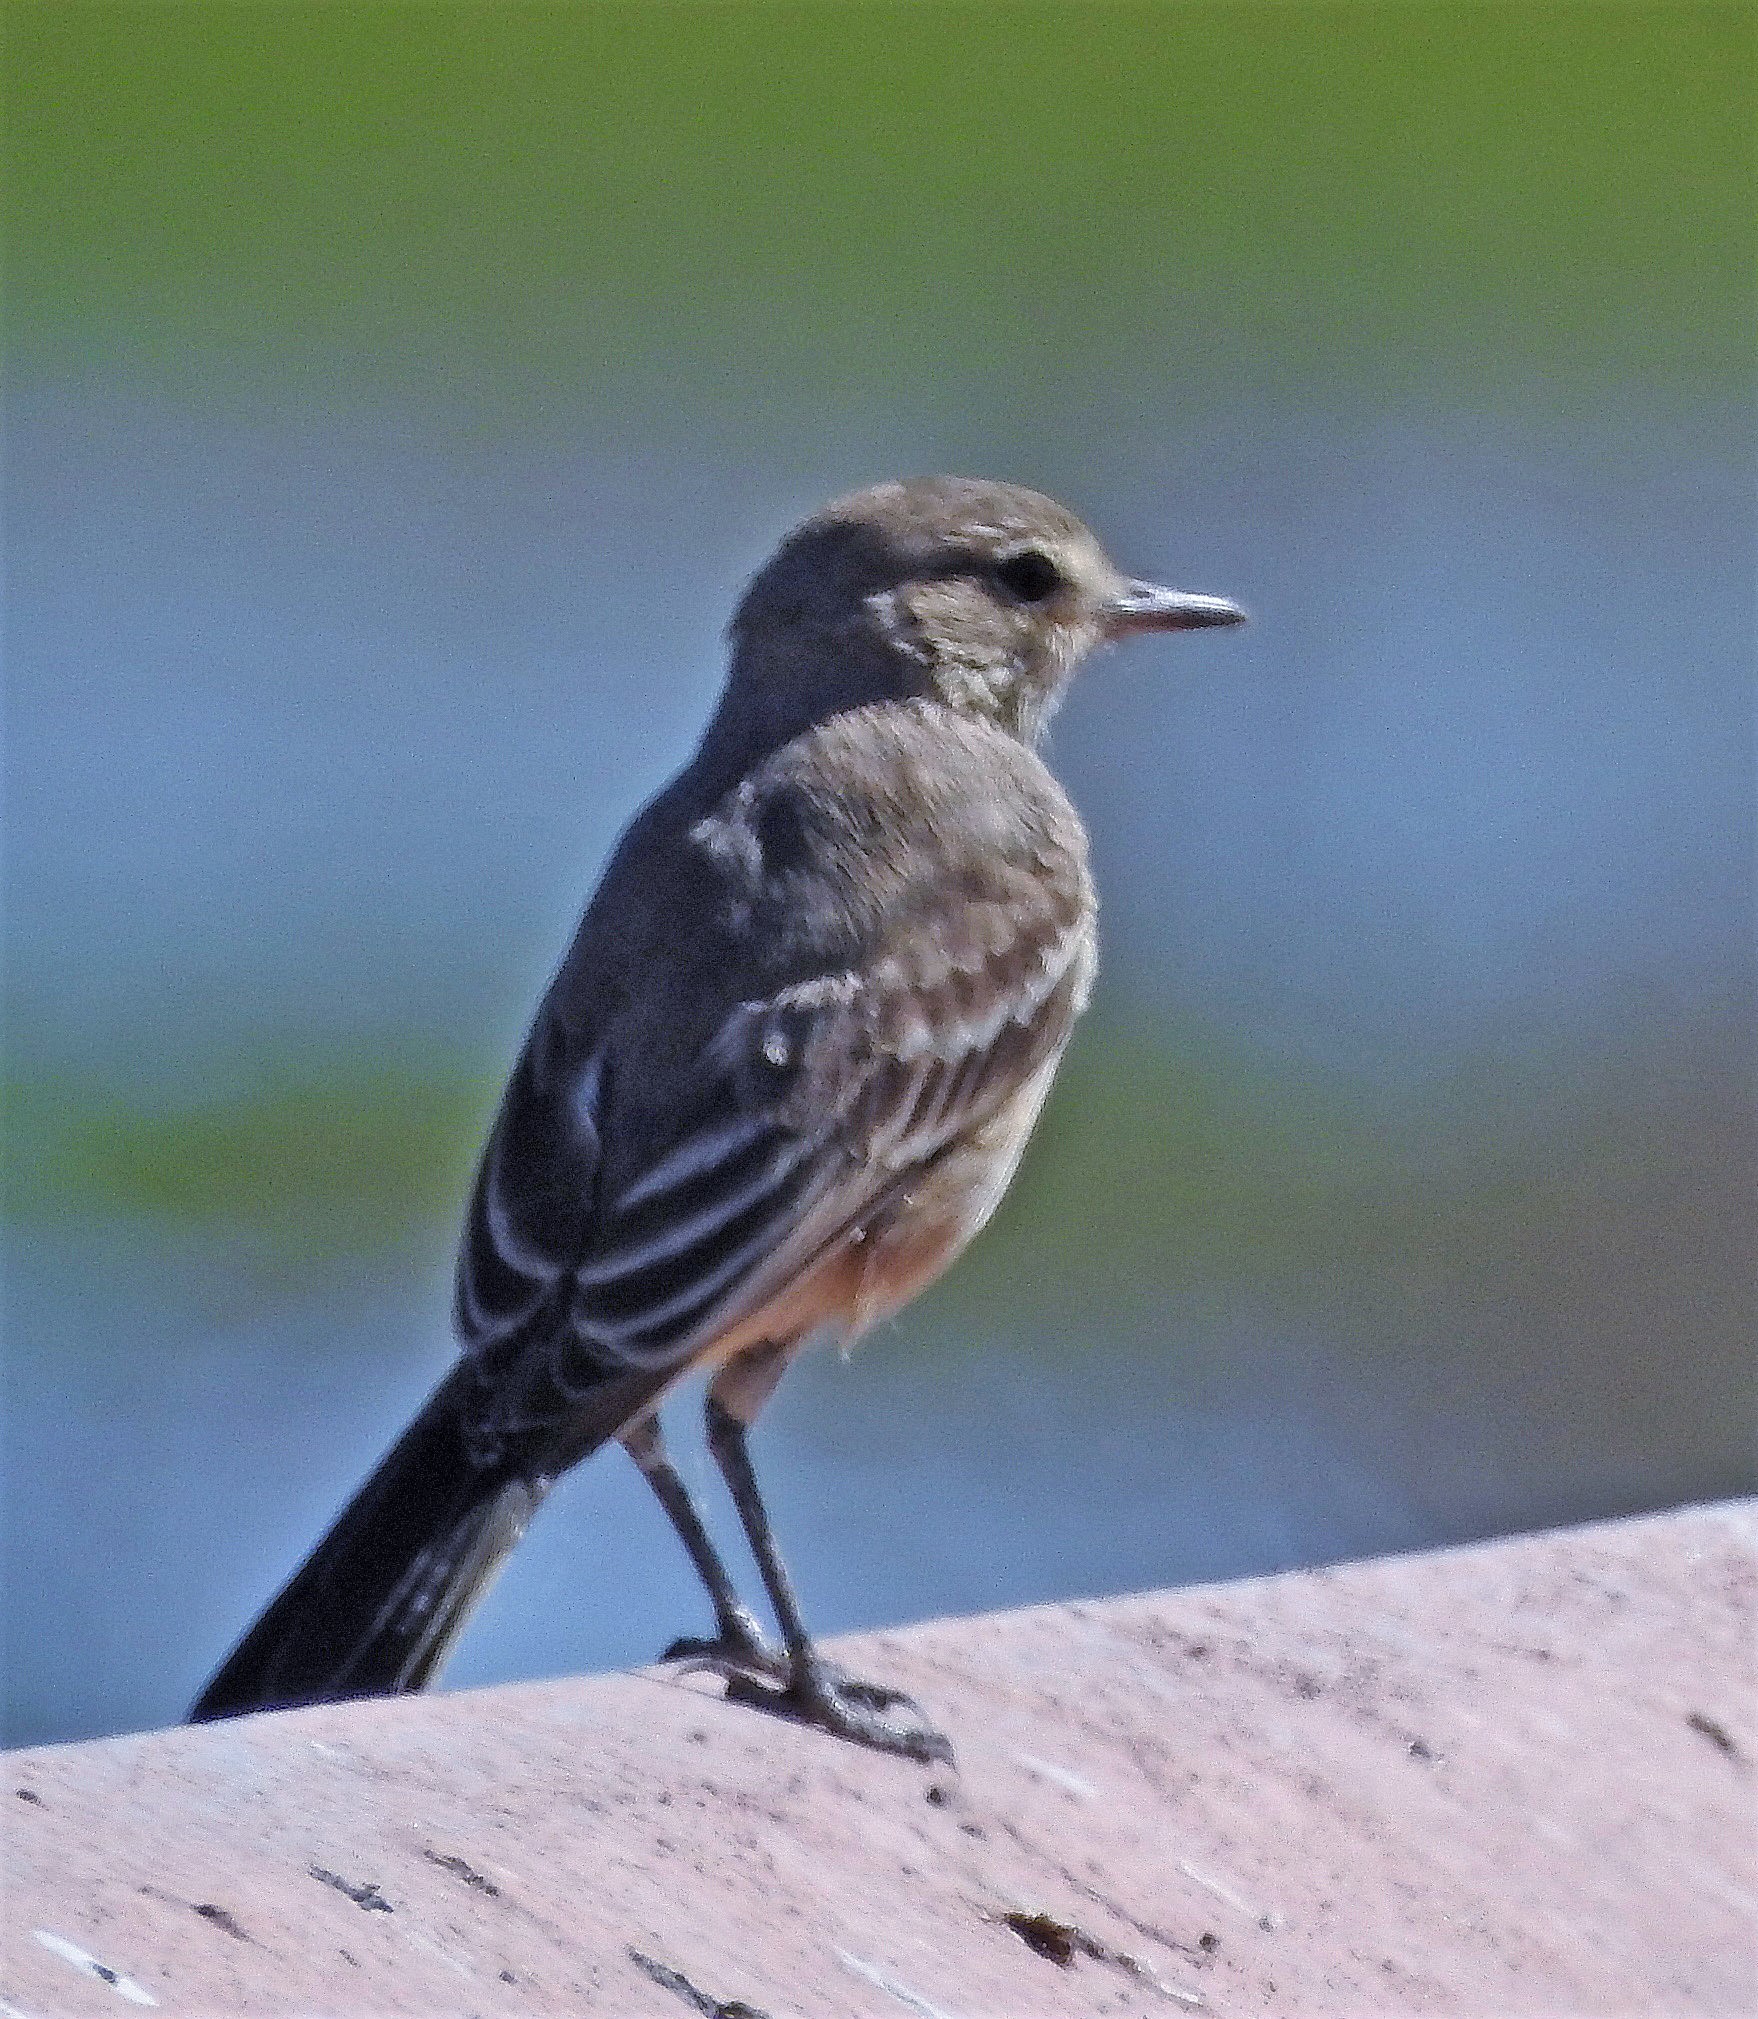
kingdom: Animalia
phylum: Chordata
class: Aves
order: Passeriformes
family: Tyrannidae
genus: Agriornis
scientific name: Agriornis murinus
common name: Lesser shrike-tyrant
